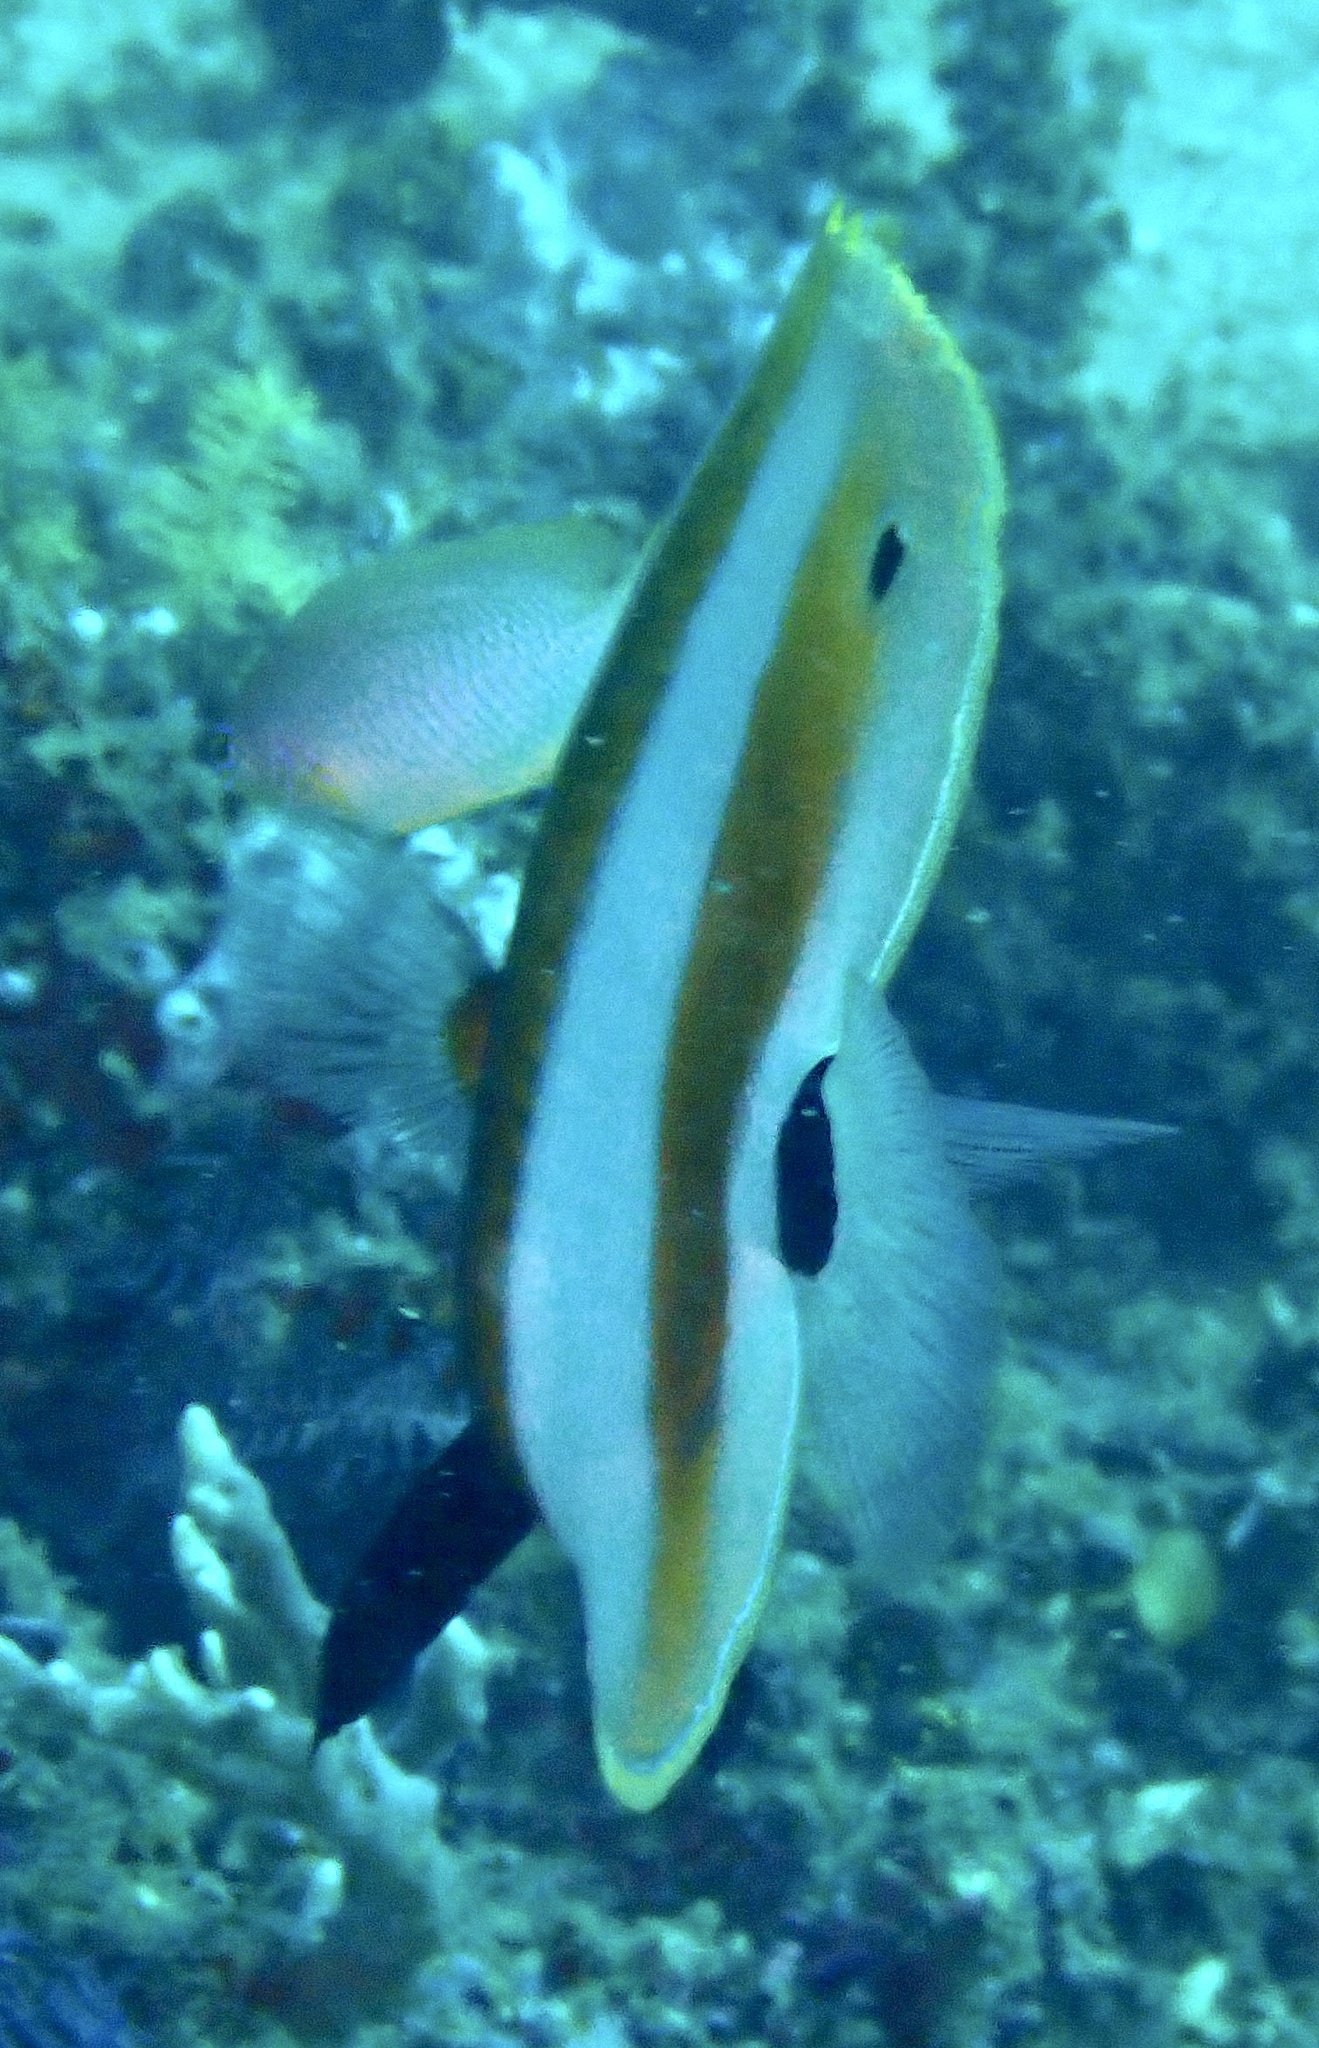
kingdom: Animalia
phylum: Chordata
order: Perciformes
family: Chaetodontidae
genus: Coradion
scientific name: Coradion chrysozonus
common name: Orange-banded coralfish
